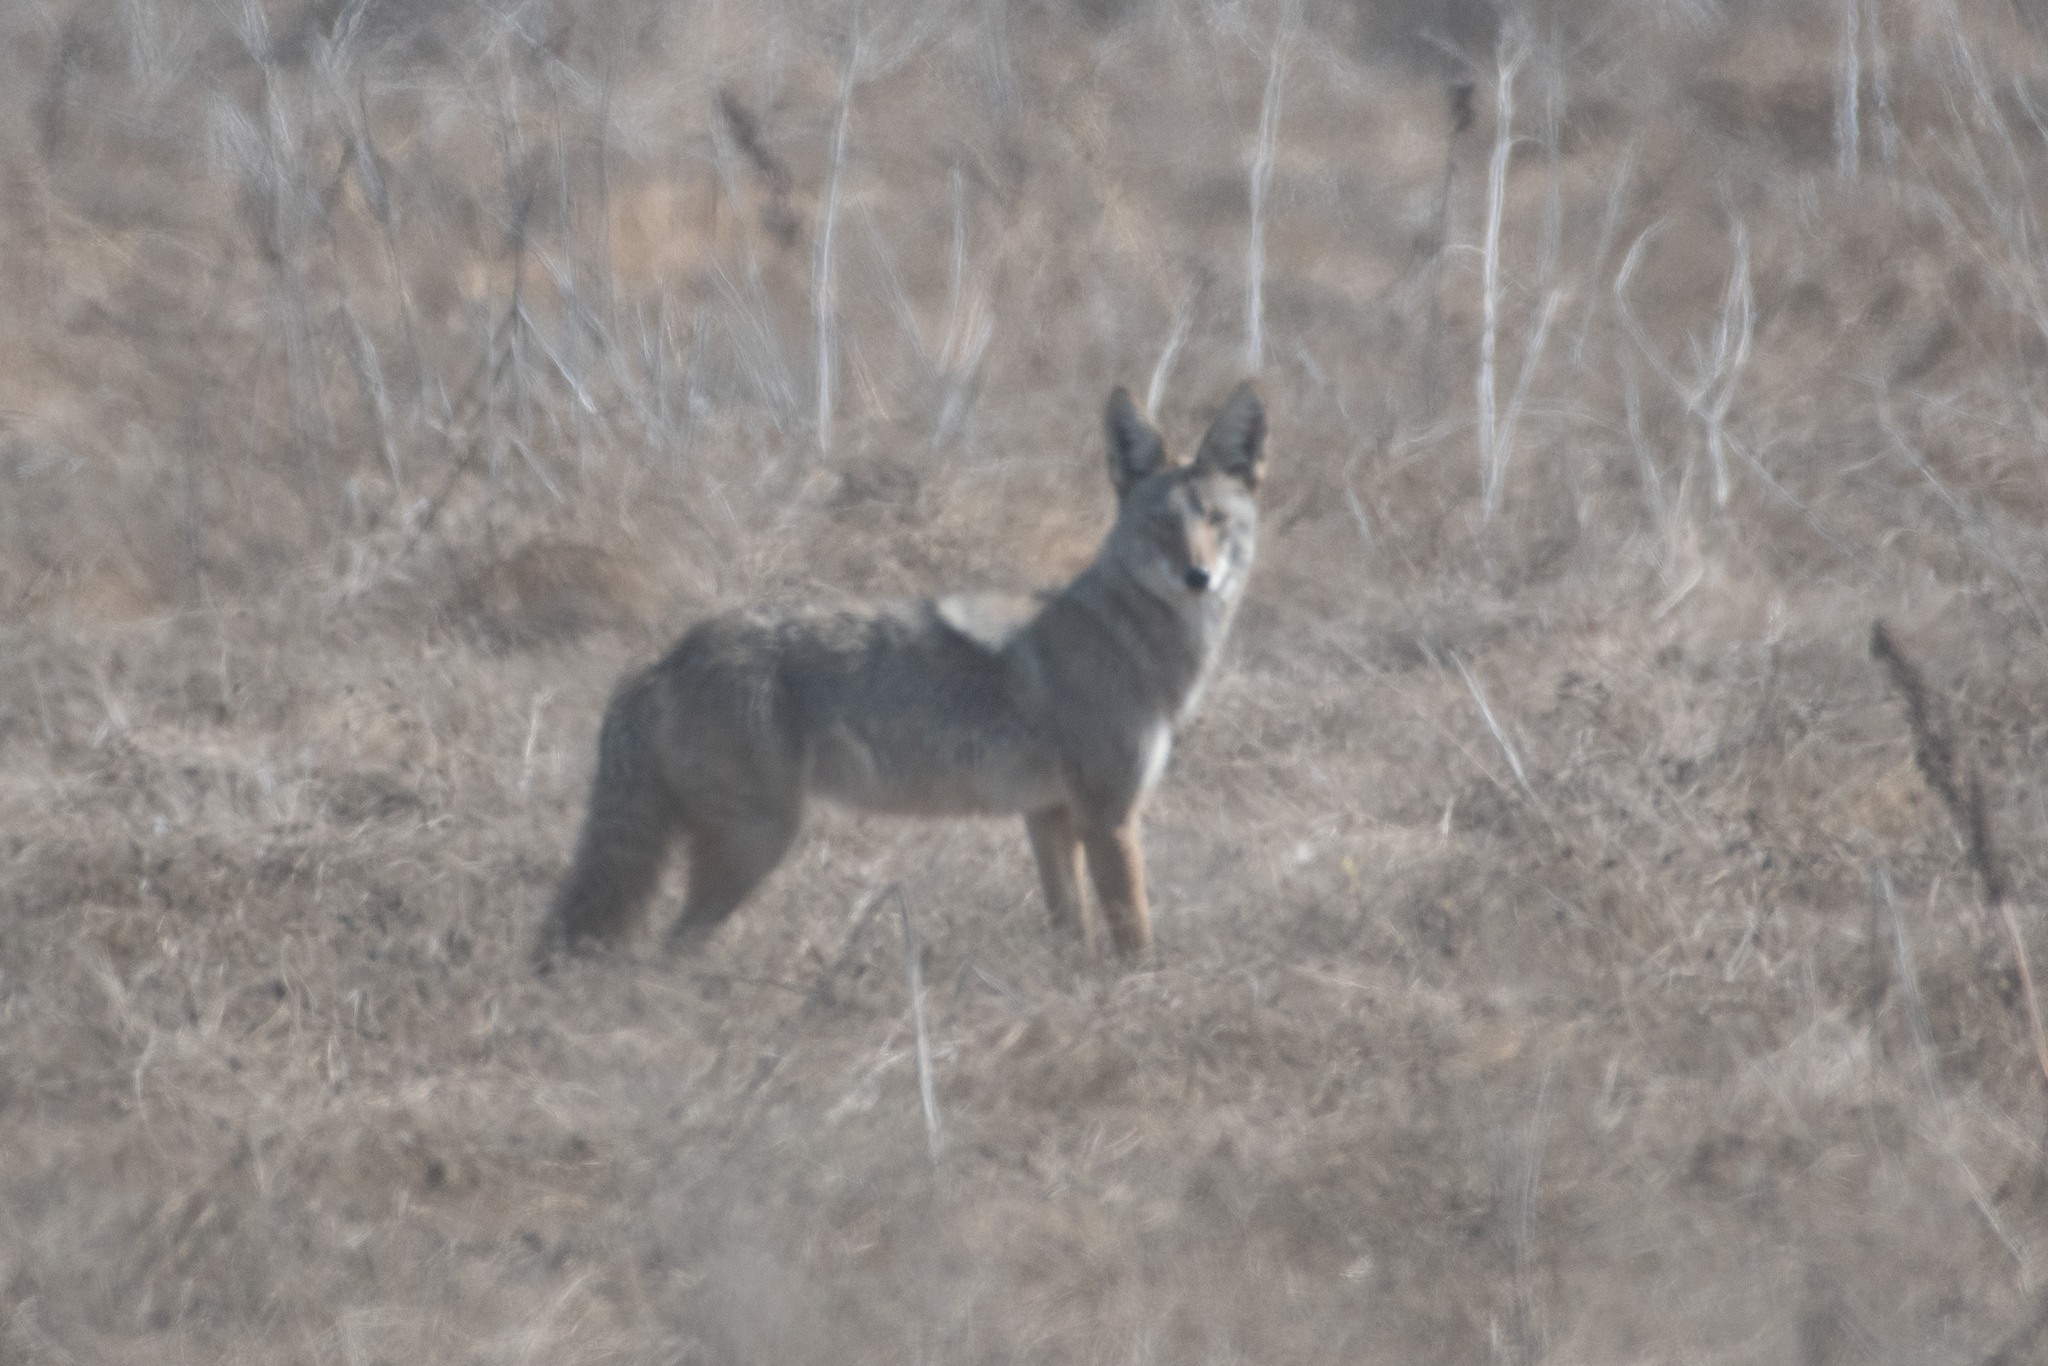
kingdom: Animalia
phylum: Chordata
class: Mammalia
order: Carnivora
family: Canidae
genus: Canis
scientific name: Canis latrans
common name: Coyote
